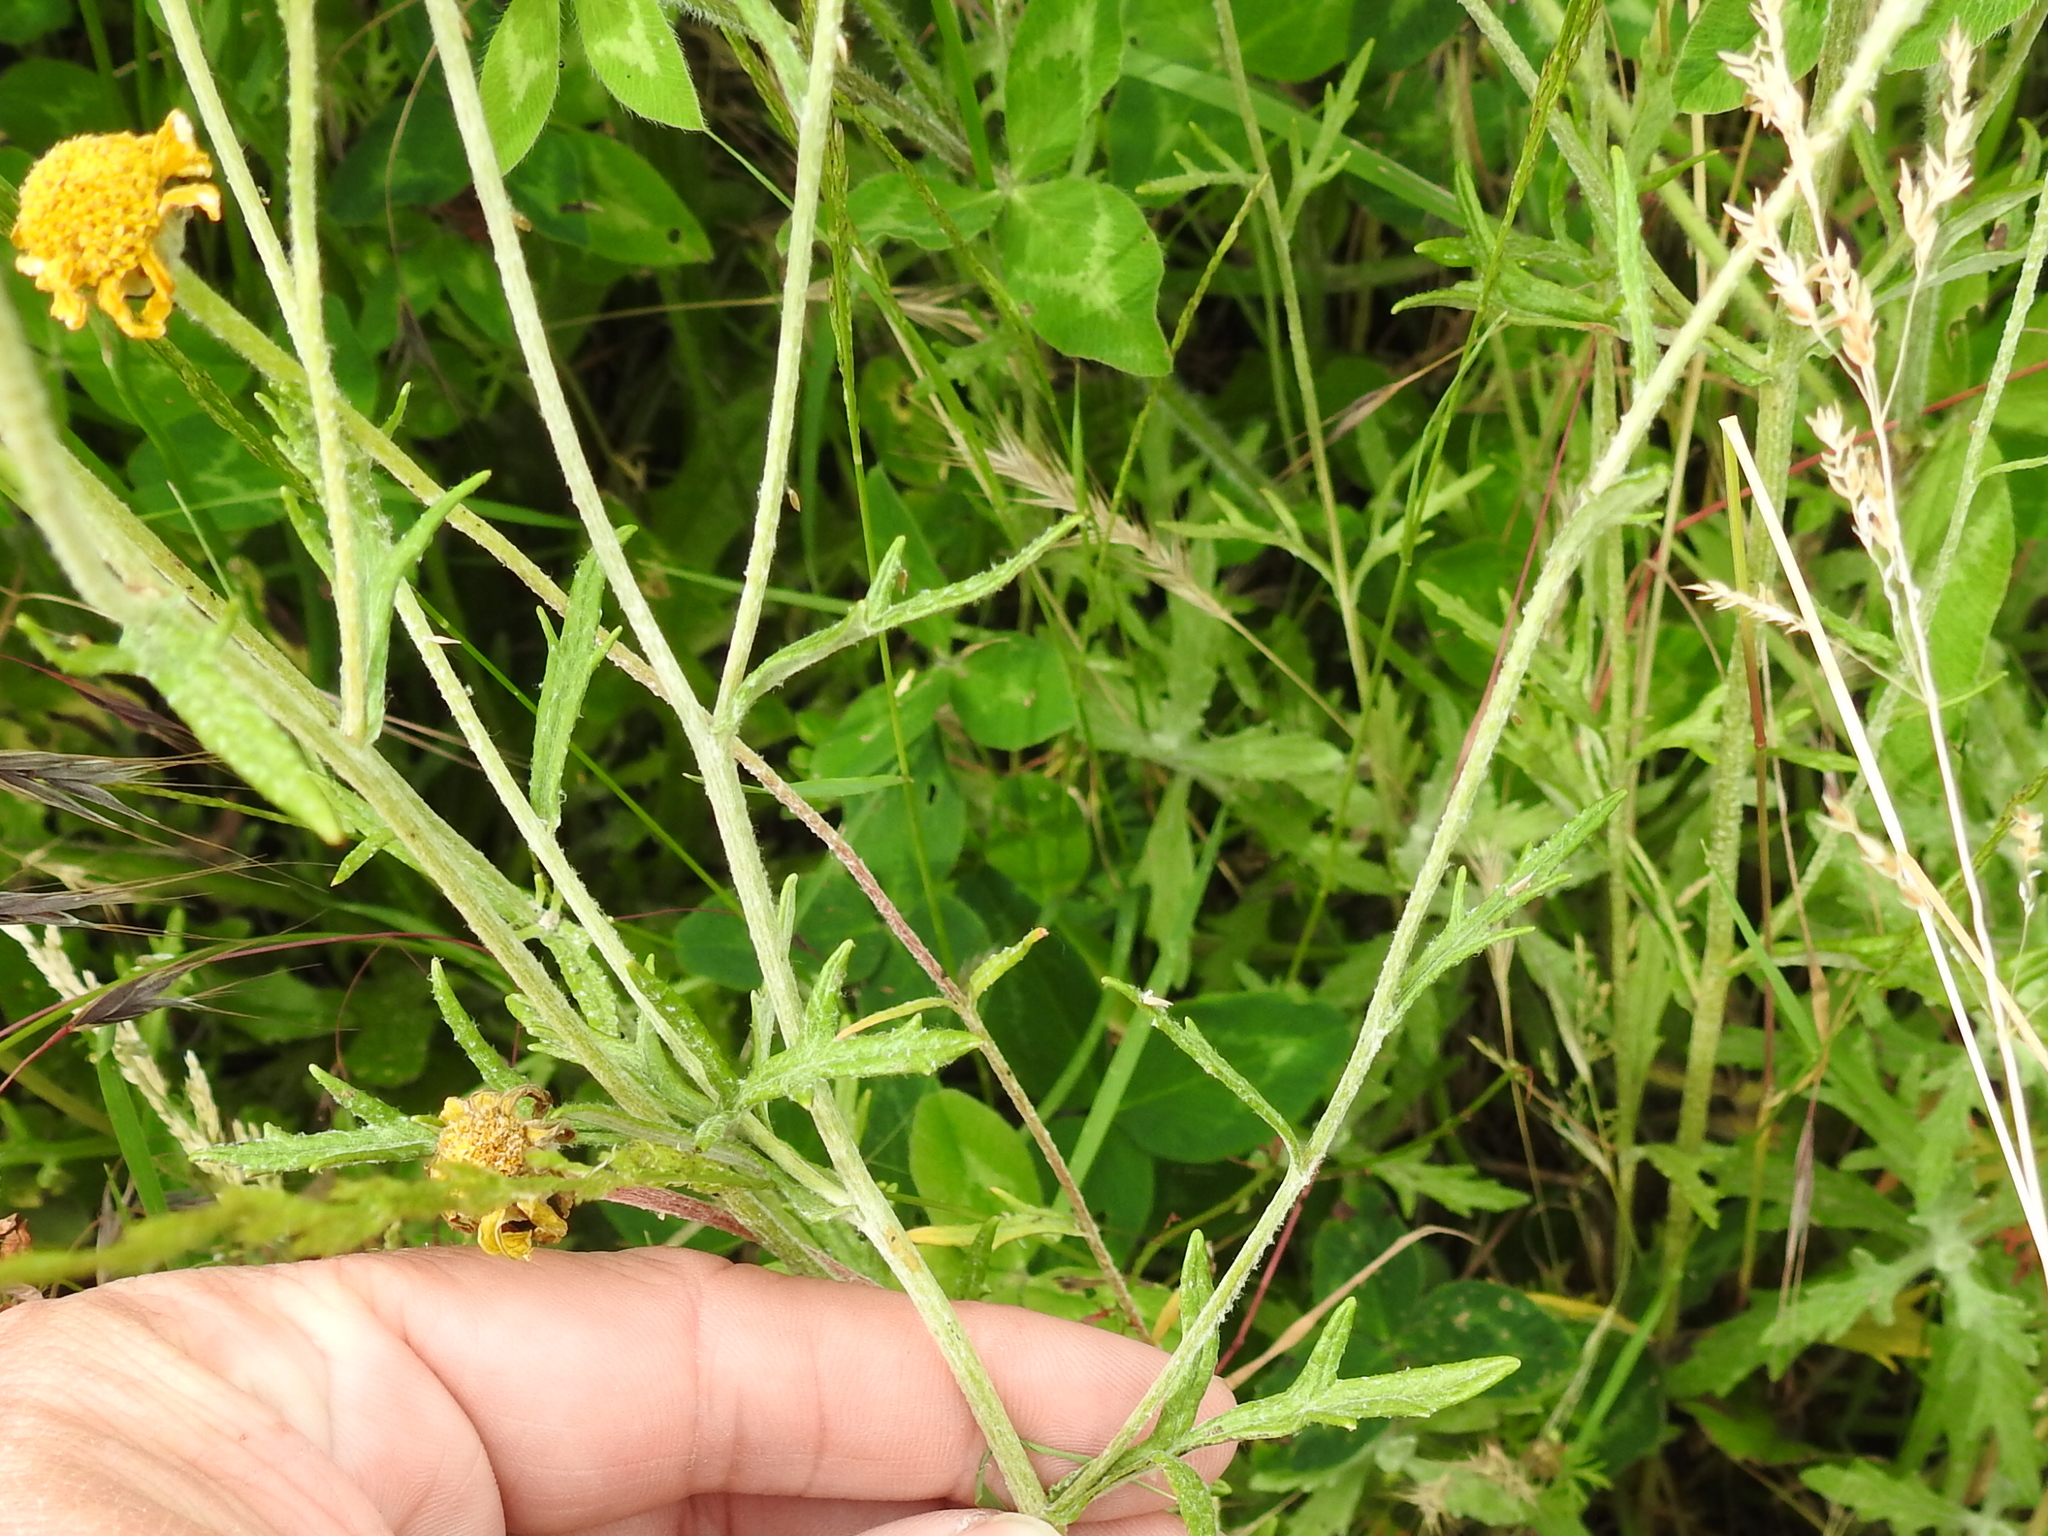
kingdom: Plantae
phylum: Tracheophyta
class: Magnoliopsida
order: Asterales
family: Asteraceae
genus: Eriophyllum
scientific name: Eriophyllum lanatum
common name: Common woolly-sunflower
